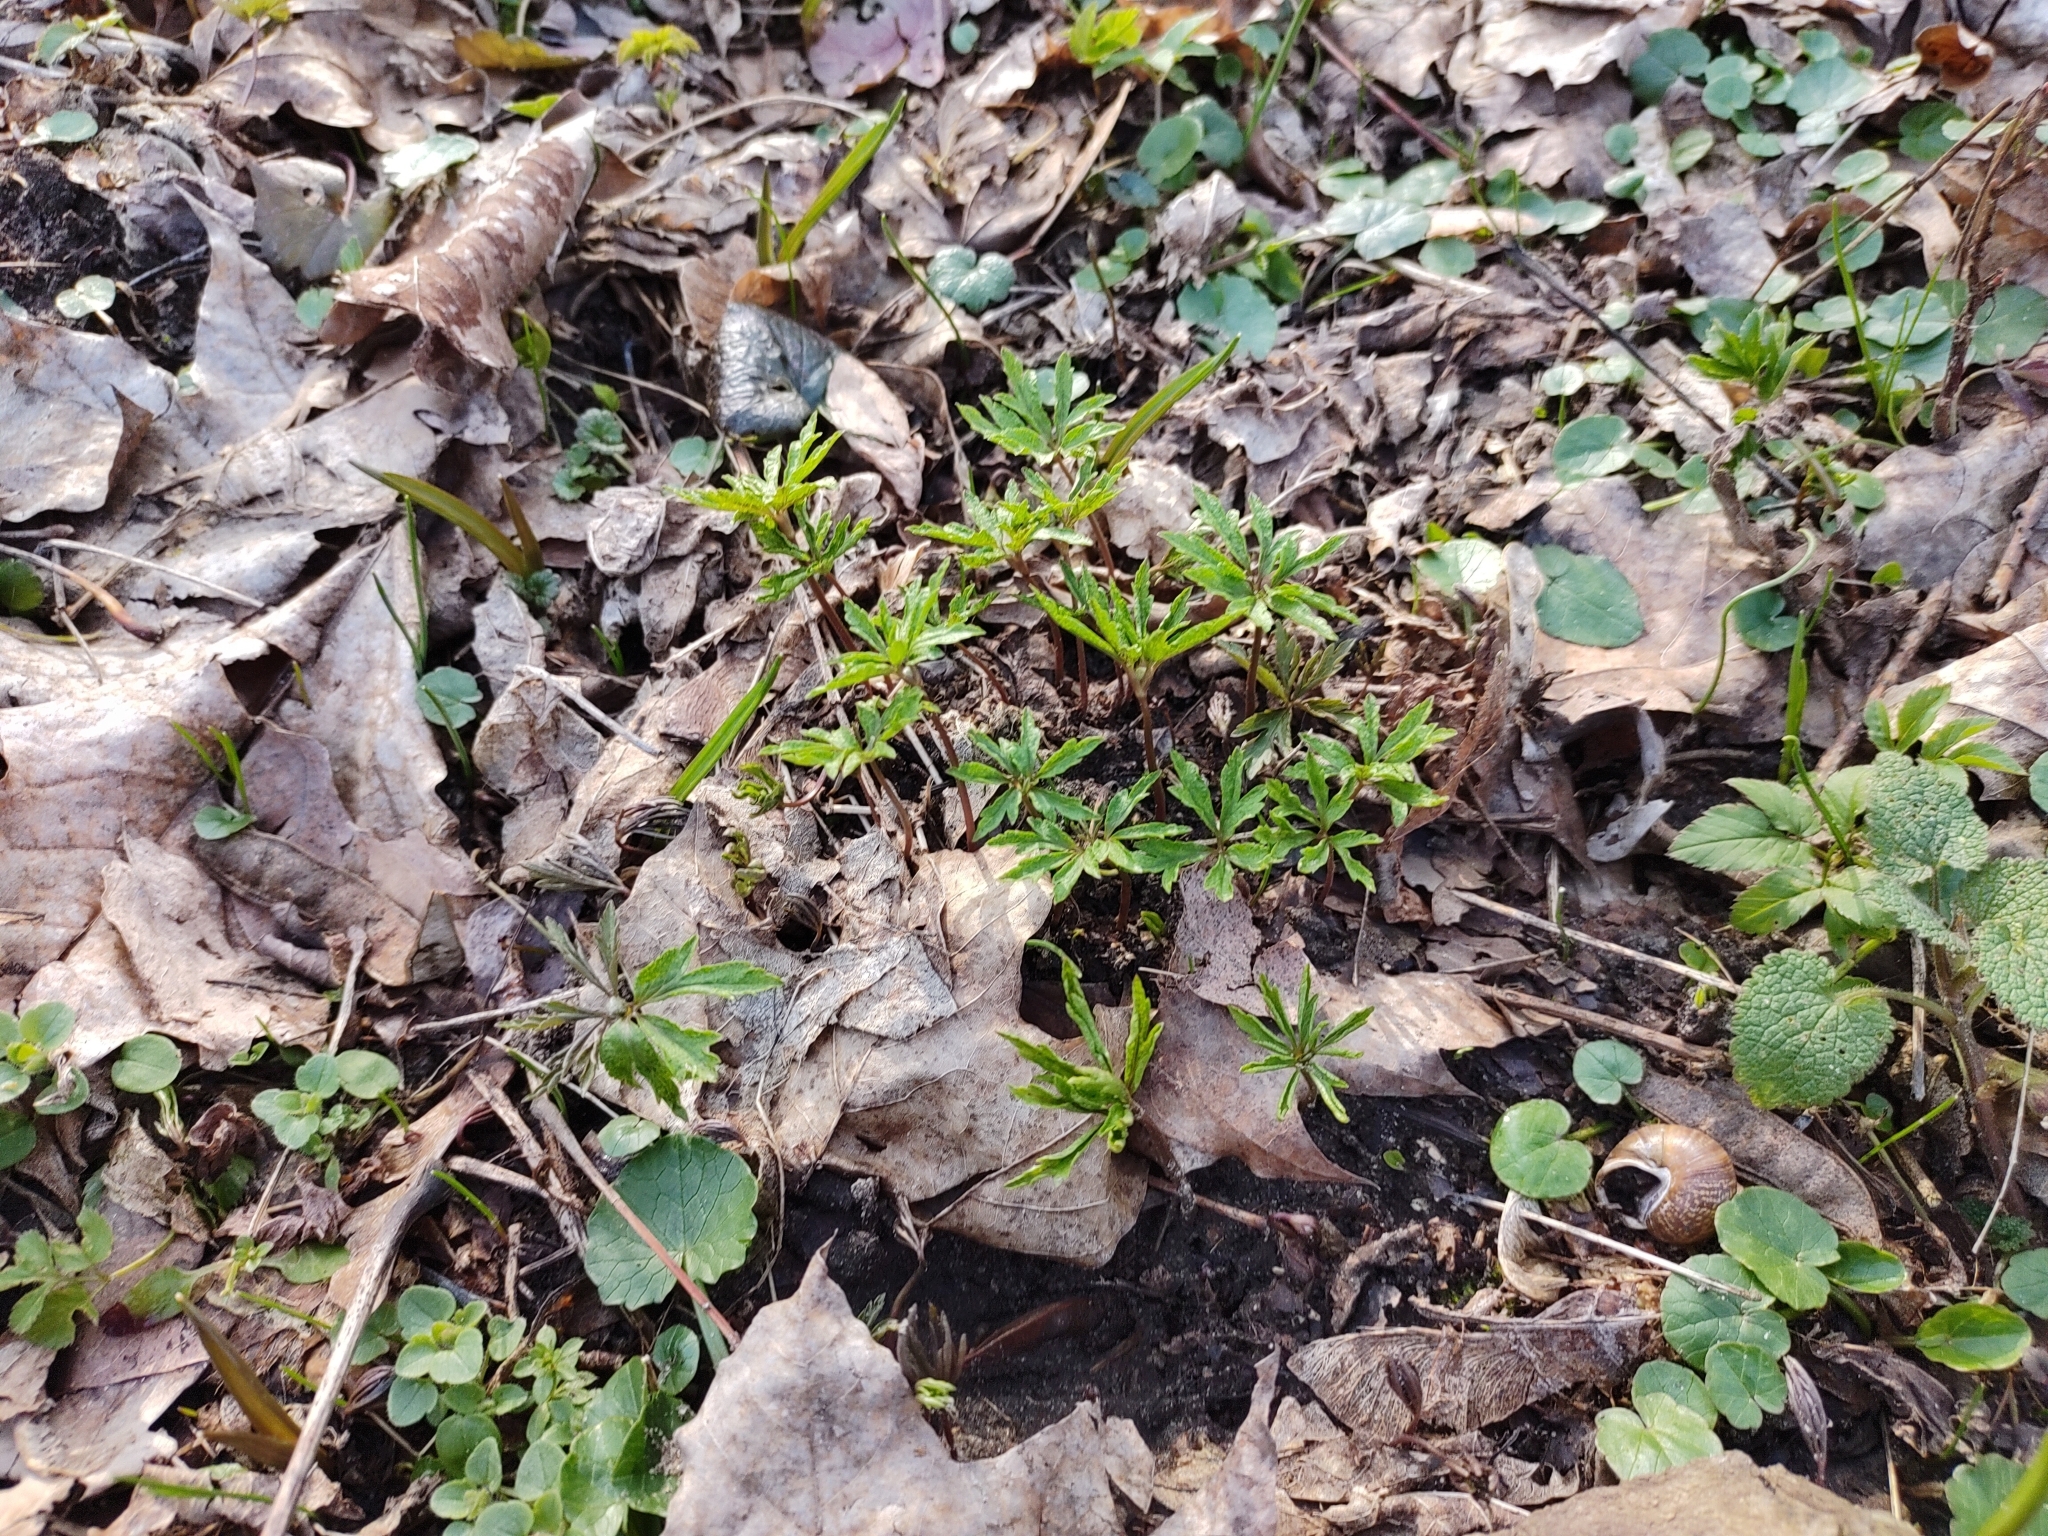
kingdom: Plantae
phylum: Tracheophyta
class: Magnoliopsida
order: Ranunculales
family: Ranunculaceae
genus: Anemone
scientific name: Anemone ranunculoides
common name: Yellow anemone
